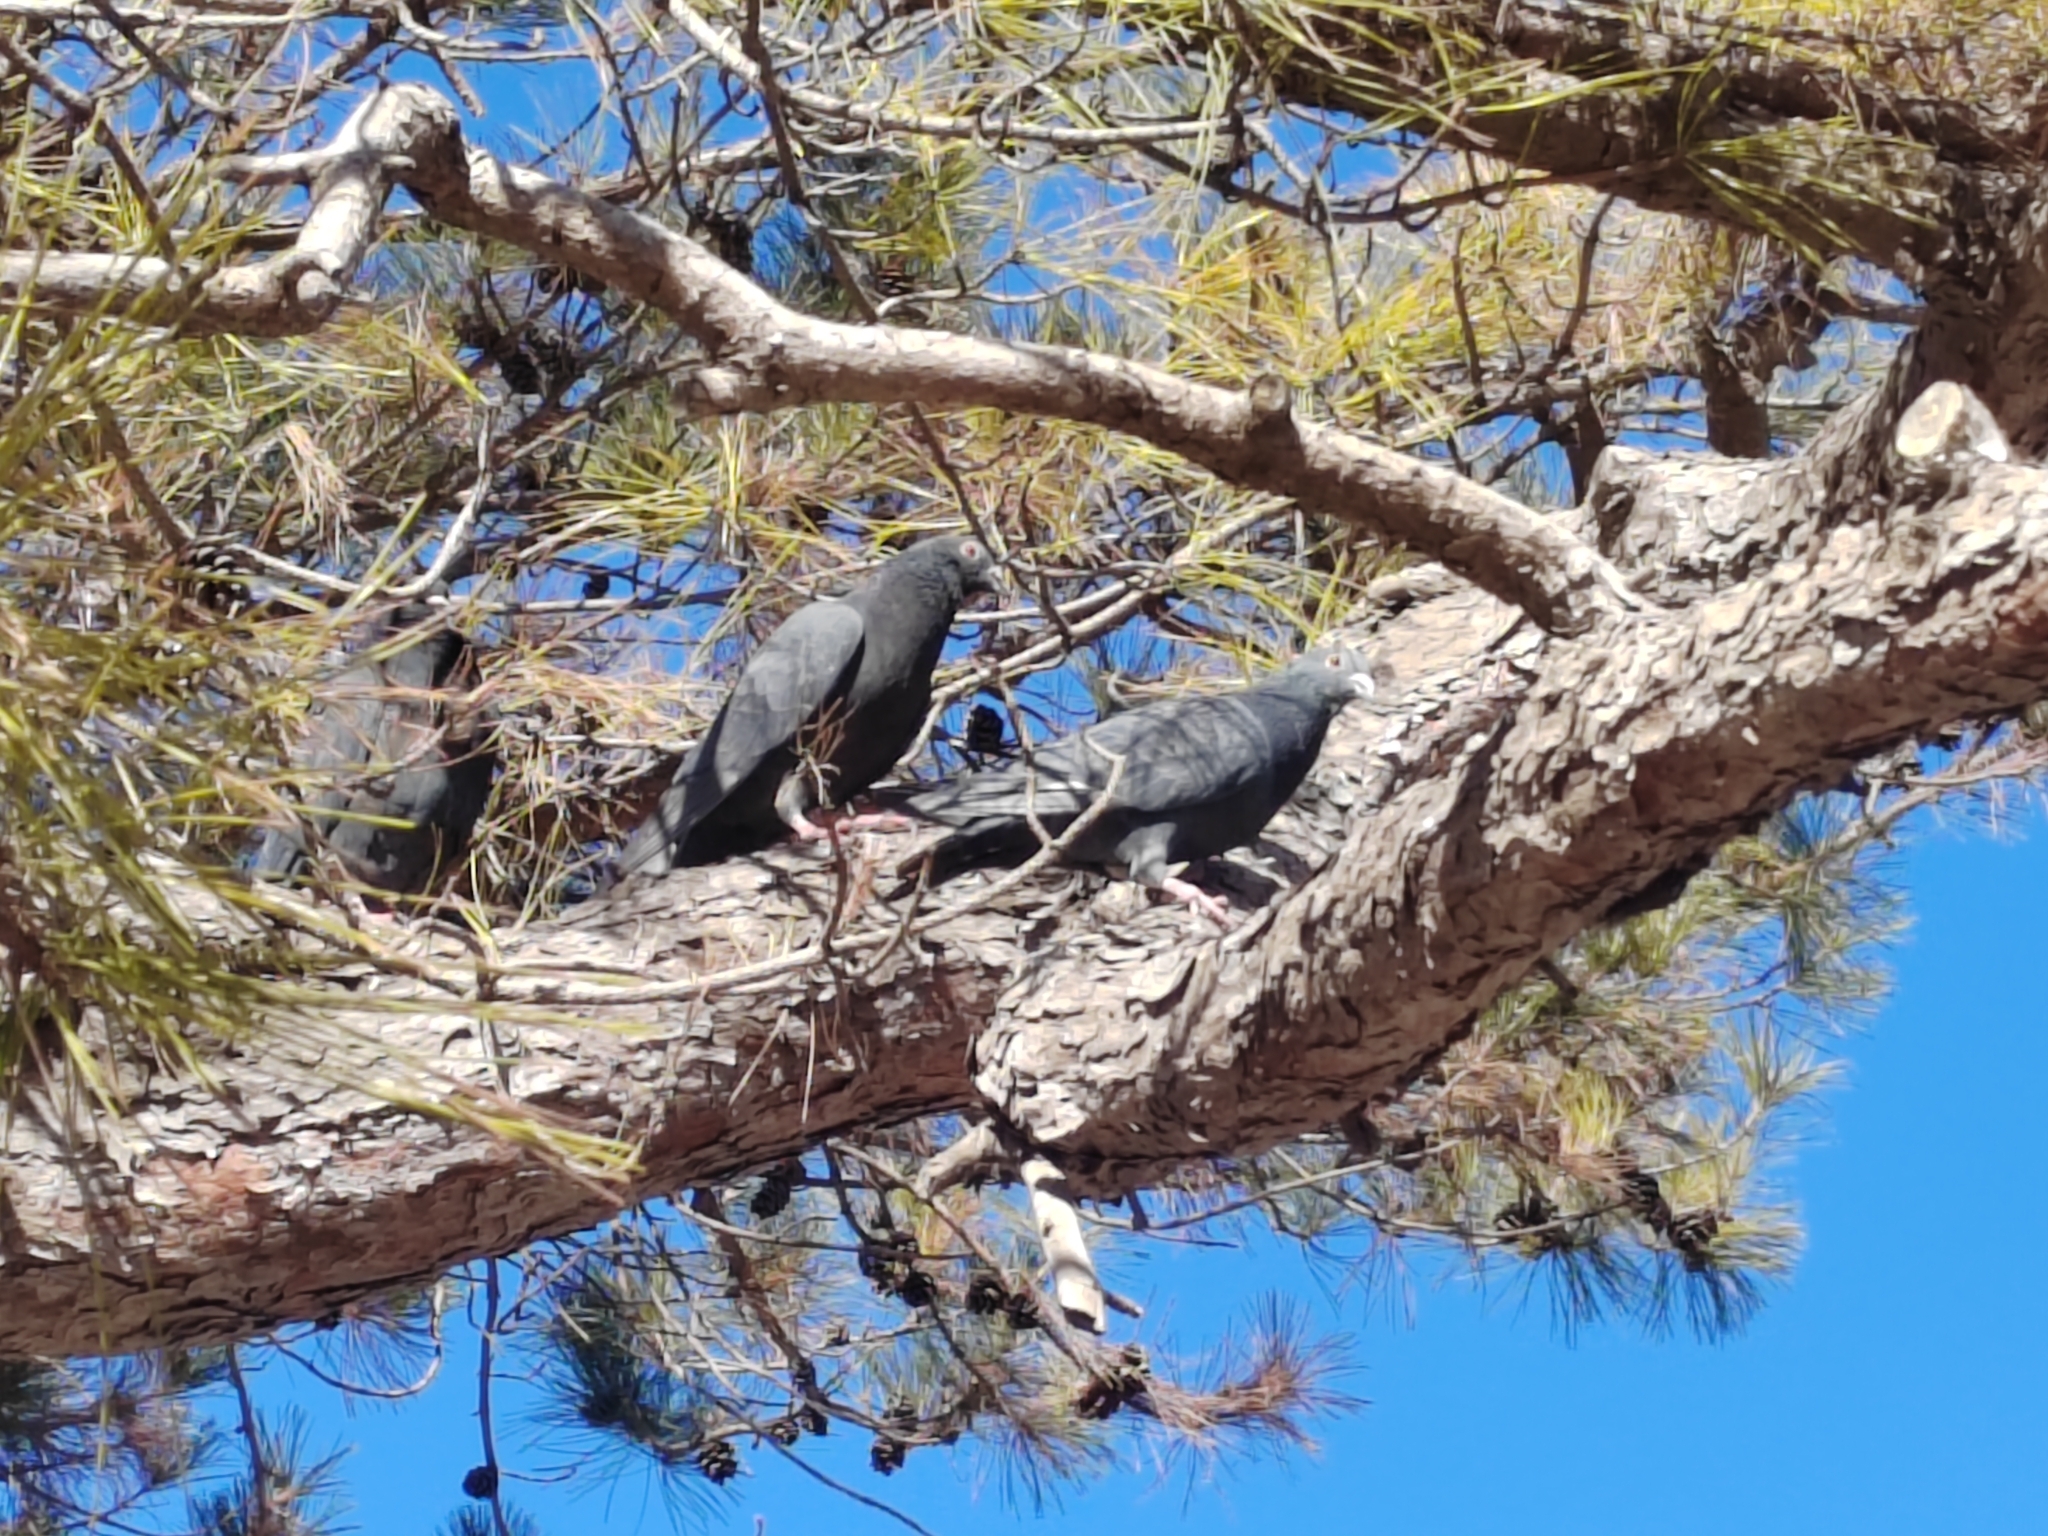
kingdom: Animalia
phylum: Chordata
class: Aves
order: Columbiformes
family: Columbidae
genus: Columba
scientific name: Columba livia
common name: Rock pigeon
